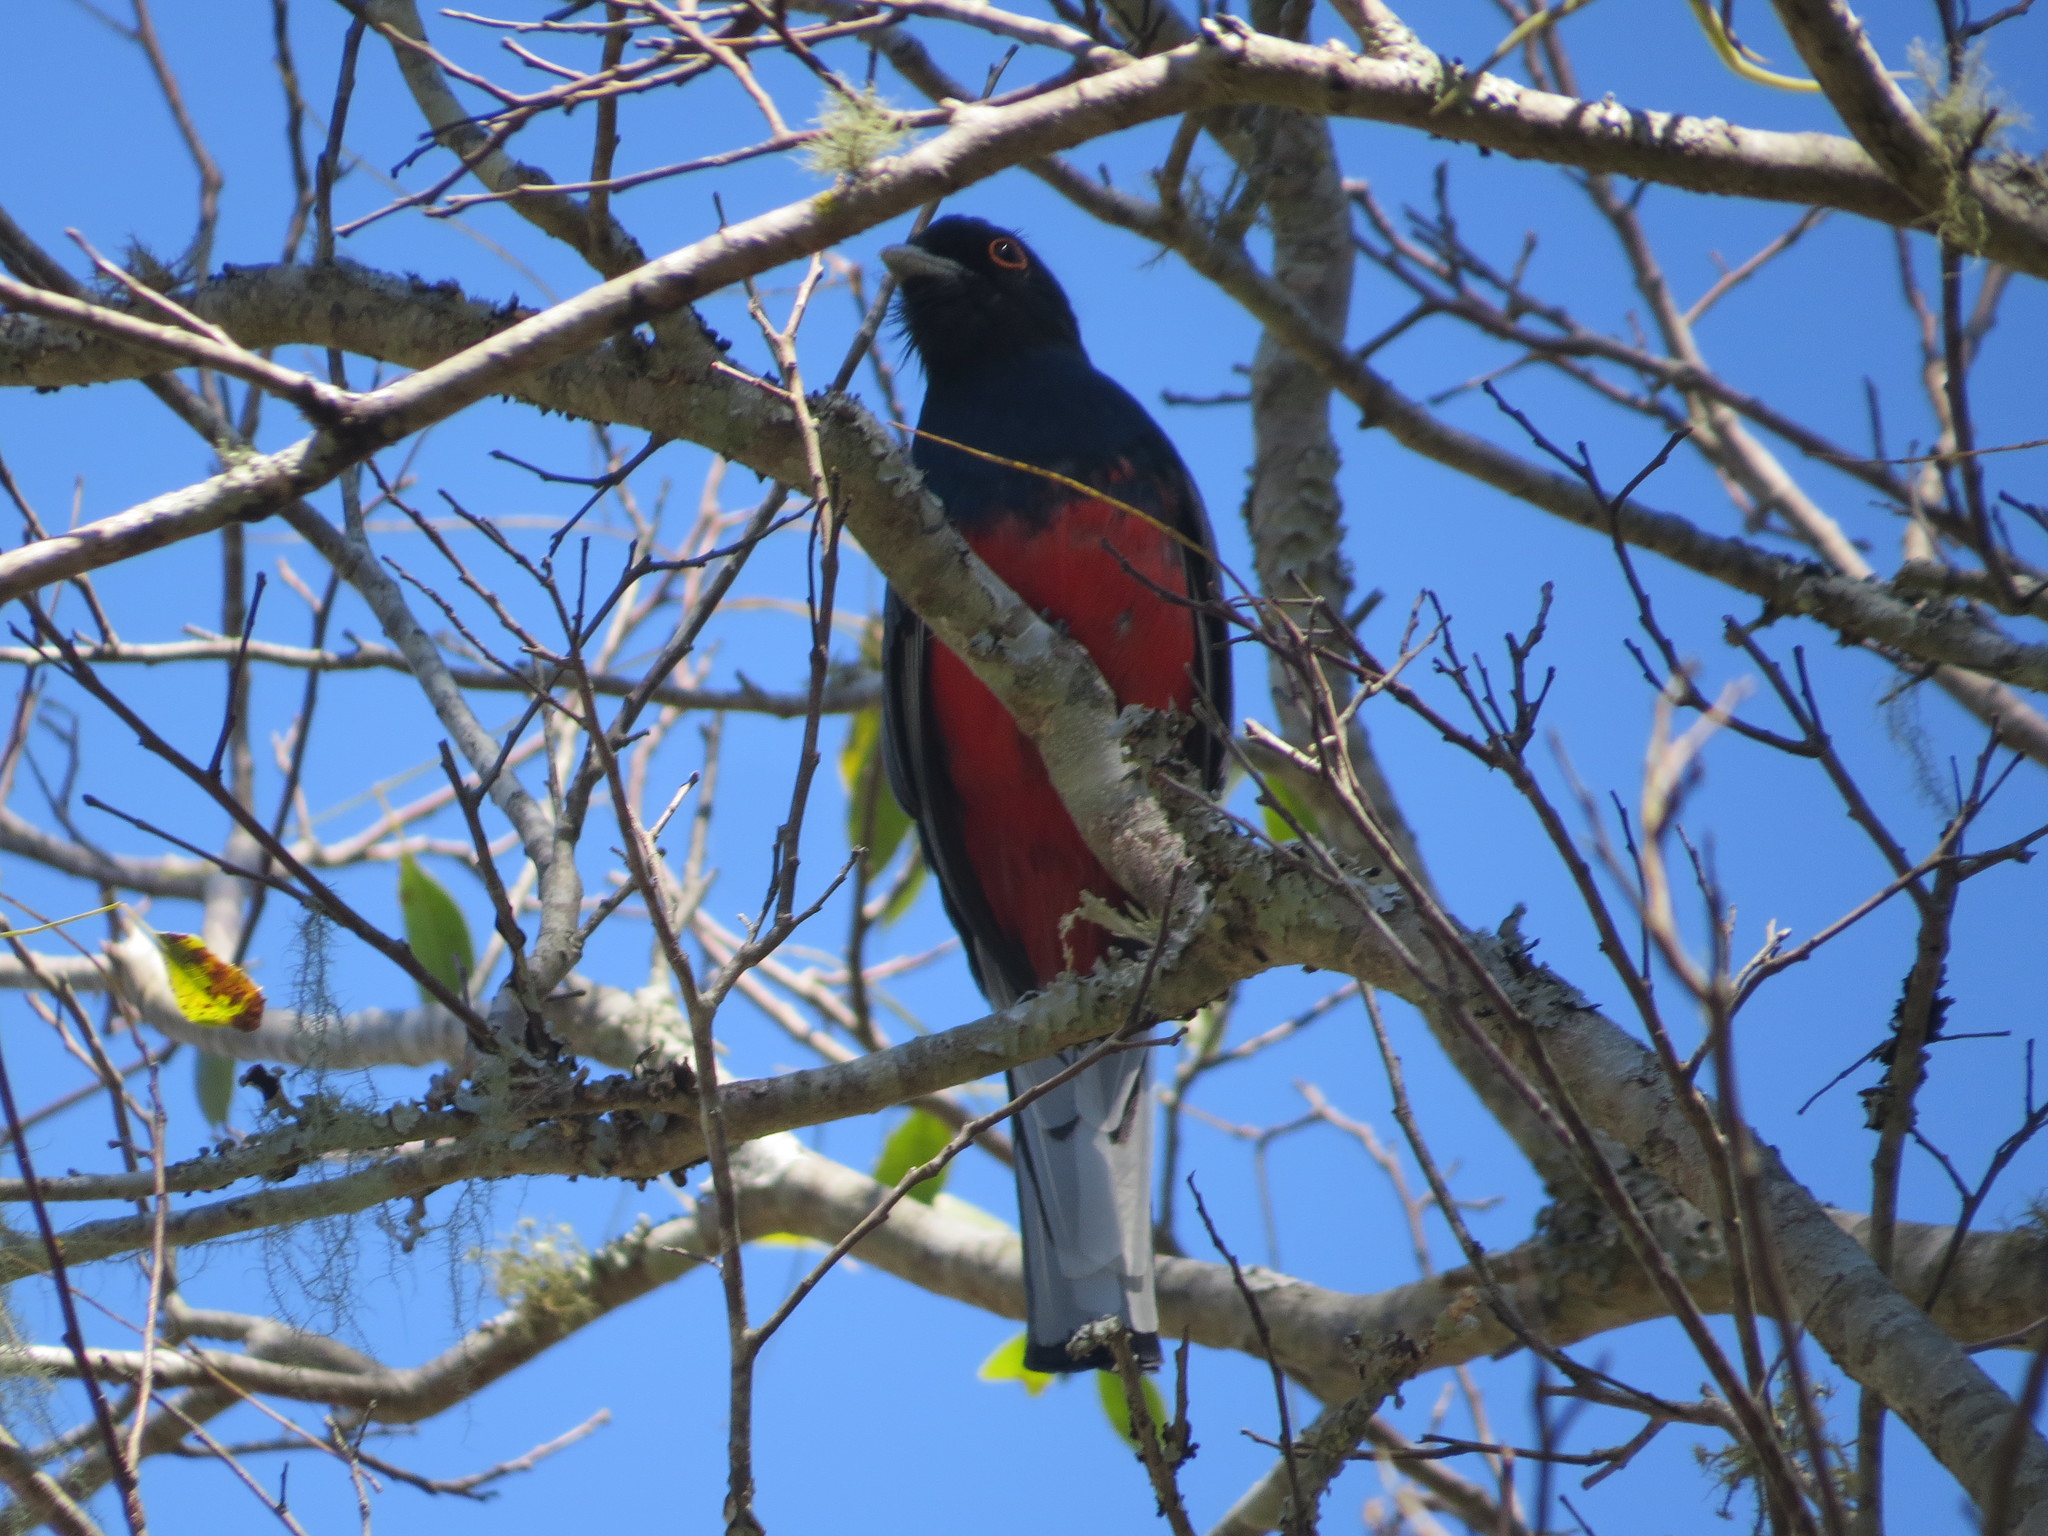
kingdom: Animalia
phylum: Chordata
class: Aves
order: Trogoniformes
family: Trogonidae
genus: Trogon
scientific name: Trogon surrucura
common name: Surucua trogon
